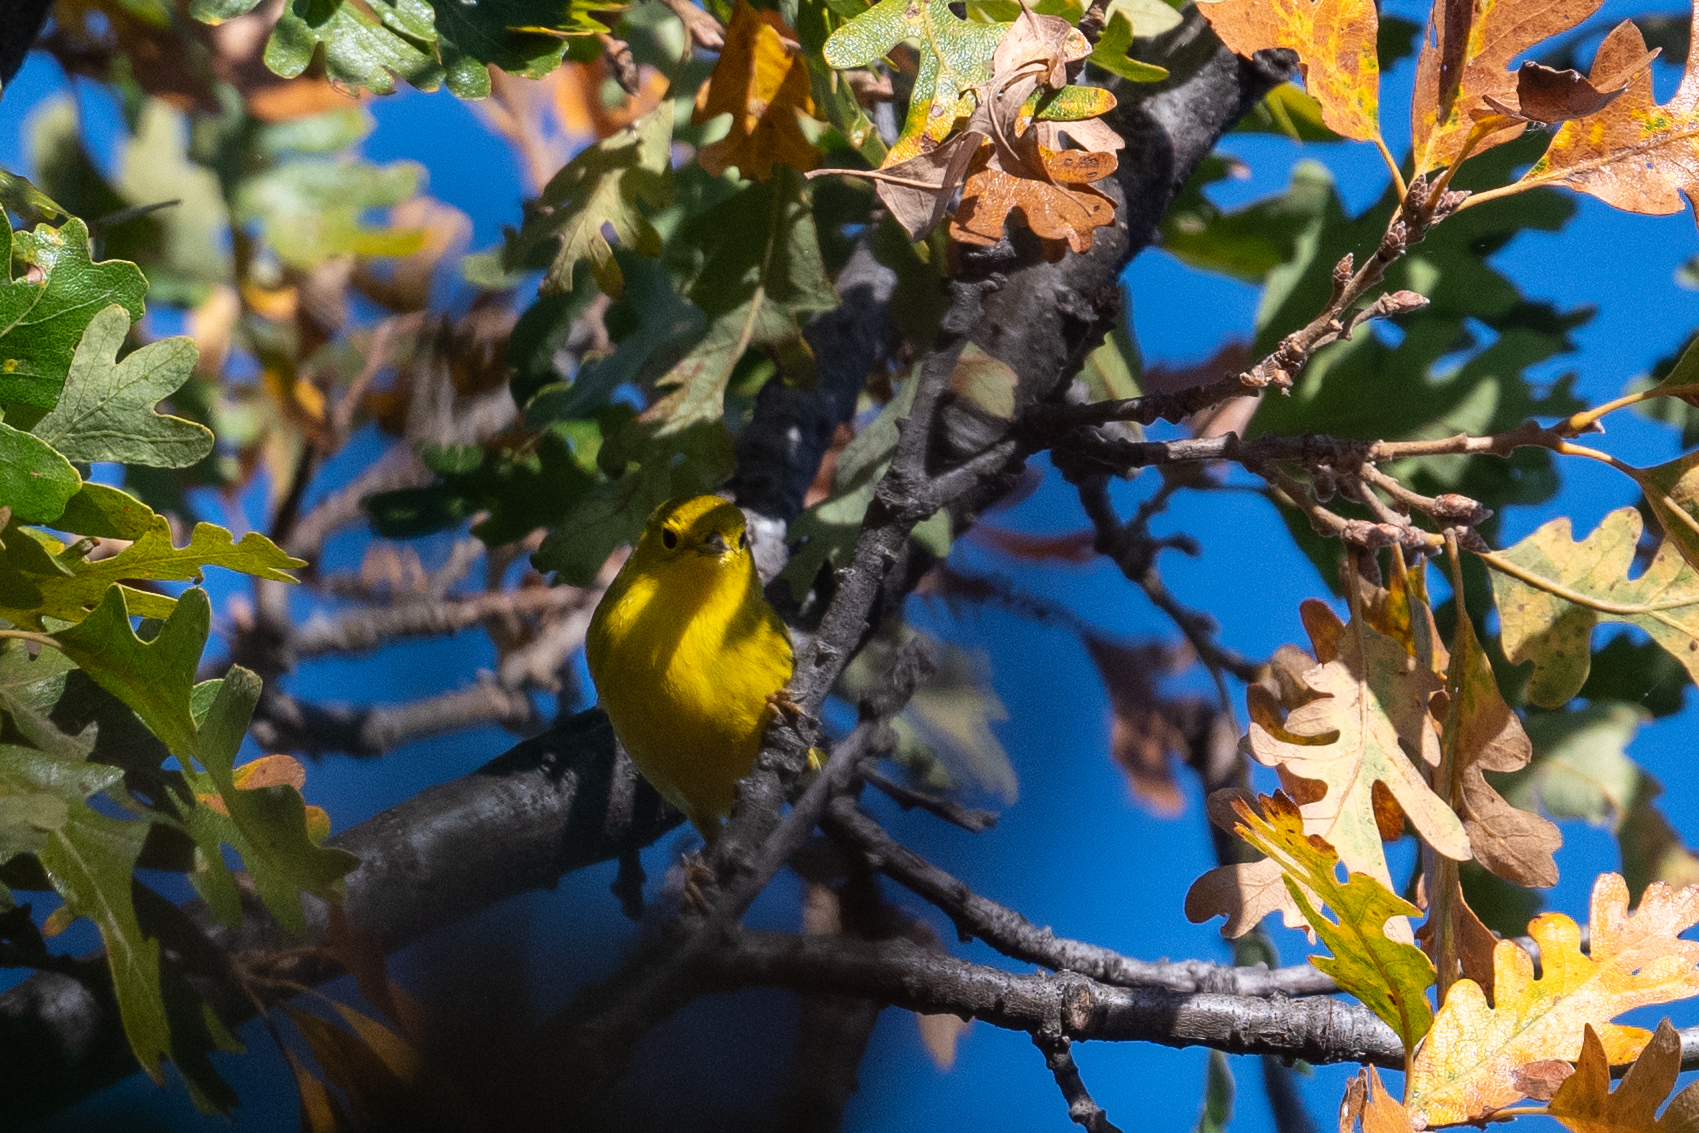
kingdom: Animalia
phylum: Chordata
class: Aves
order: Passeriformes
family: Parulidae
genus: Setophaga
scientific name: Setophaga petechia
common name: Yellow warbler
